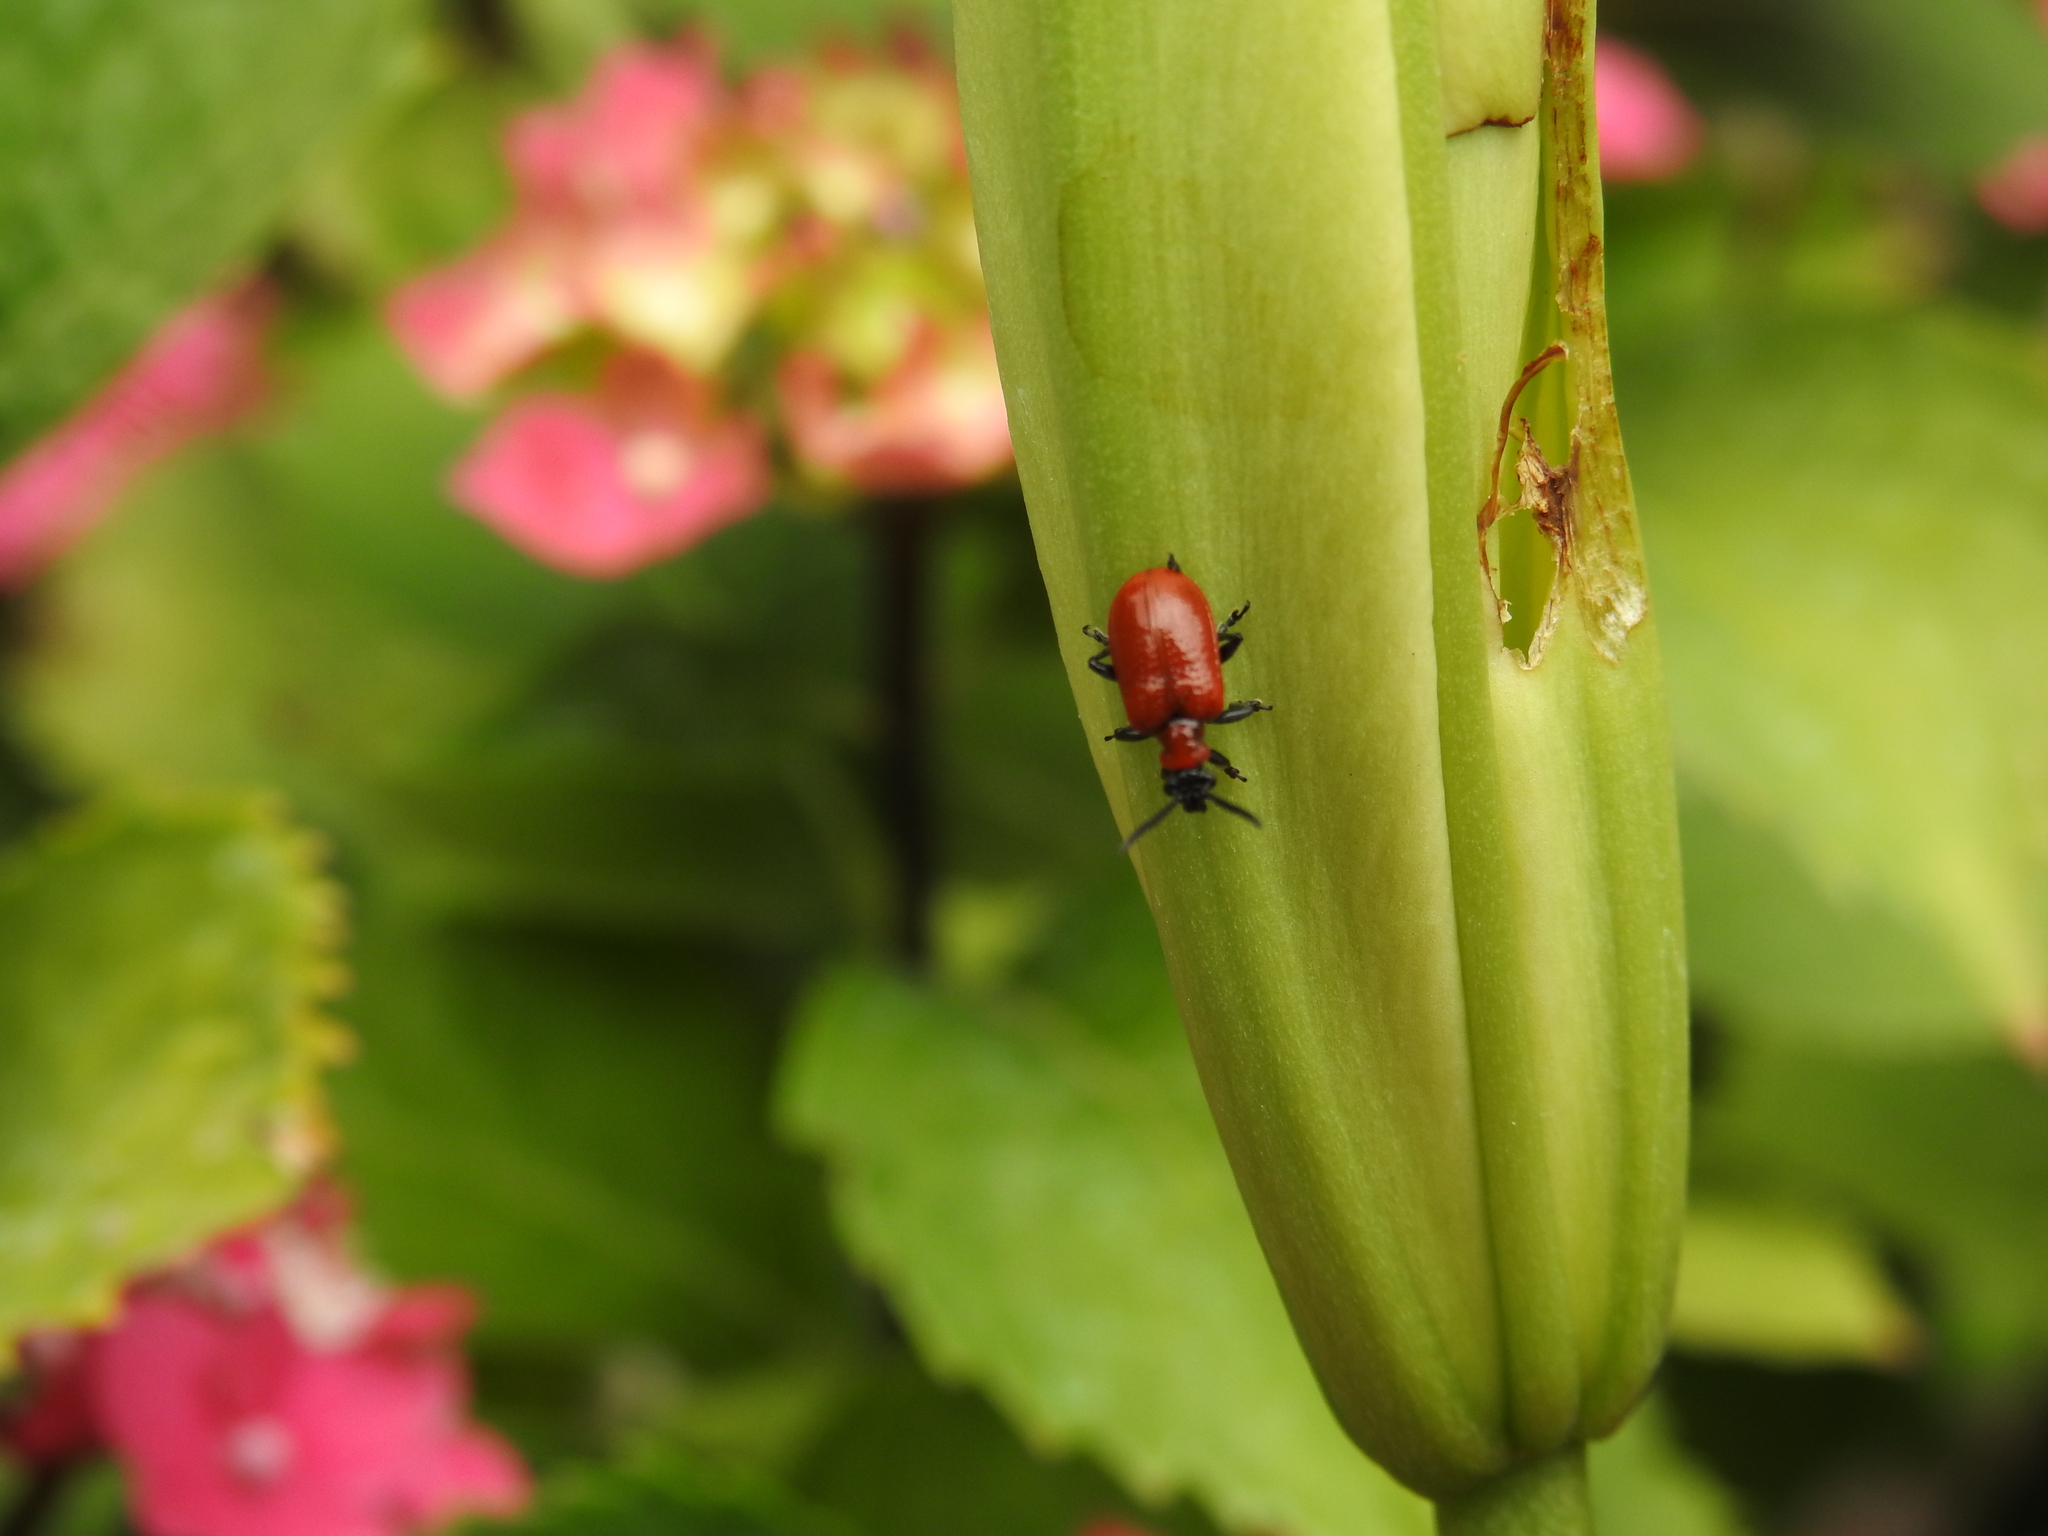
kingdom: Animalia
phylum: Arthropoda
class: Insecta
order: Coleoptera
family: Chrysomelidae
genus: Lilioceris
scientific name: Lilioceris lilii
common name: Lily beetle
